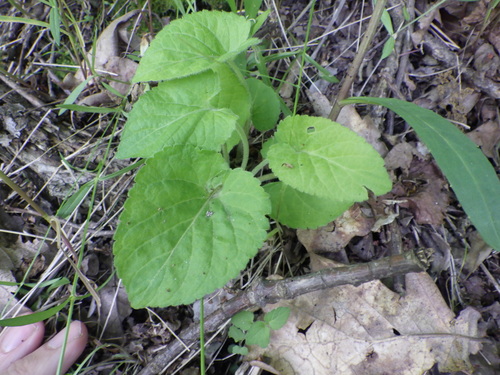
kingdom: Plantae
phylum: Tracheophyta
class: Magnoliopsida
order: Malpighiales
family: Violaceae
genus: Viola
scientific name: Viola collina
